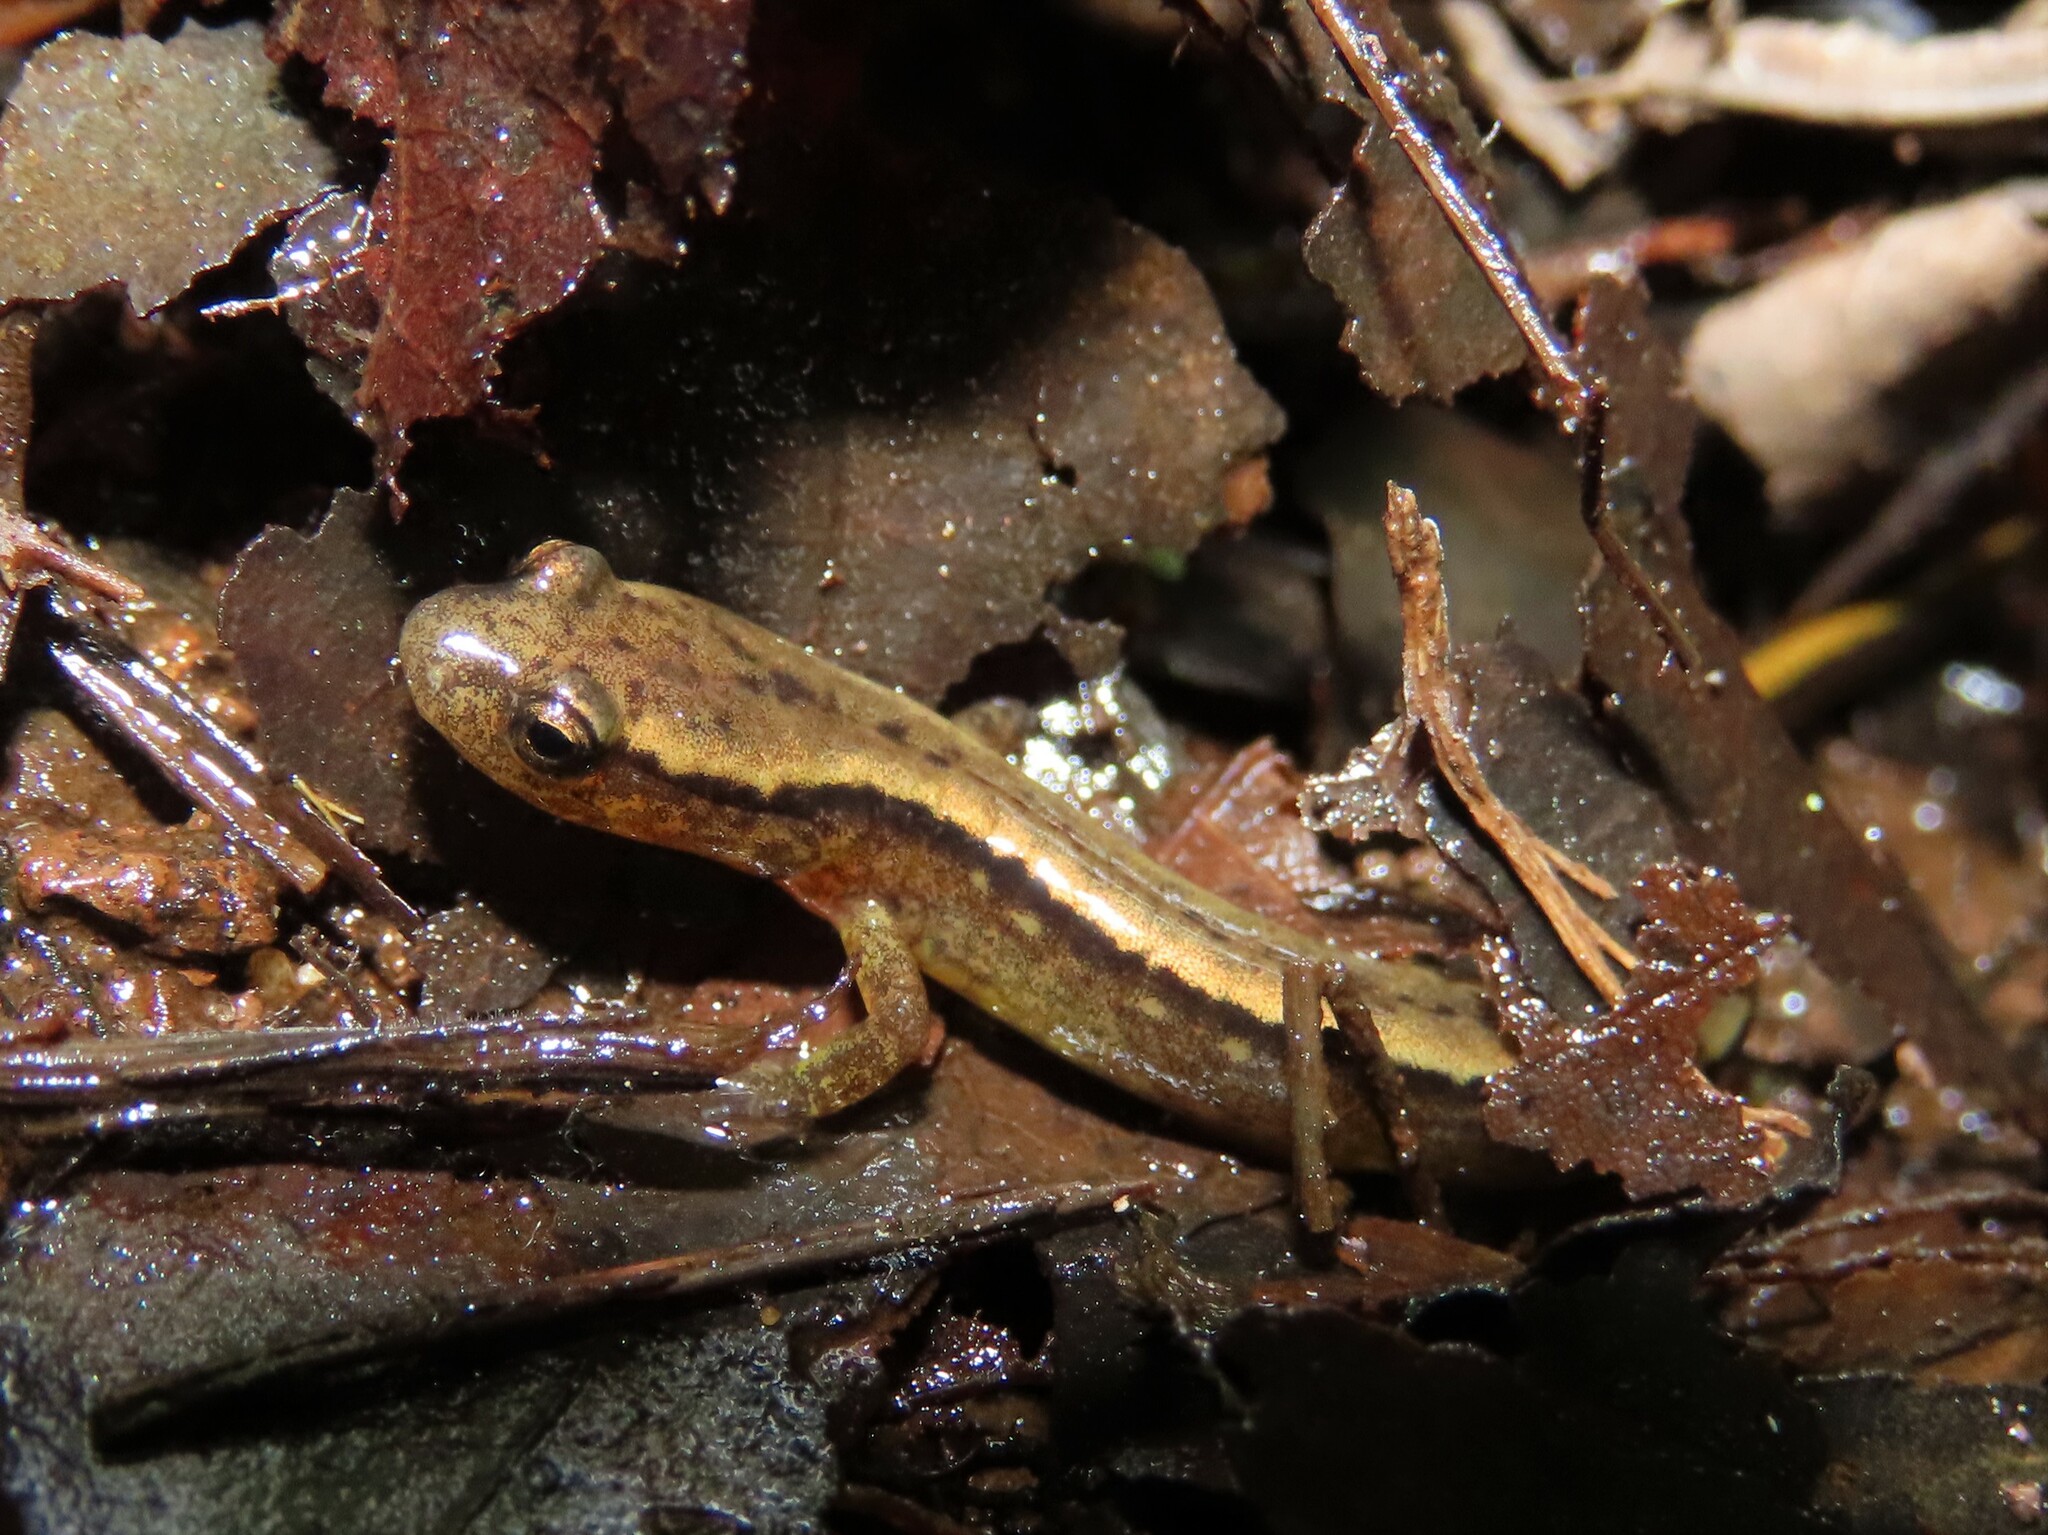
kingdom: Animalia
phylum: Chordata
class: Amphibia
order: Caudata
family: Plethodontidae
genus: Eurycea
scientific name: Eurycea bislineata
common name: Northern two-lined salamander
